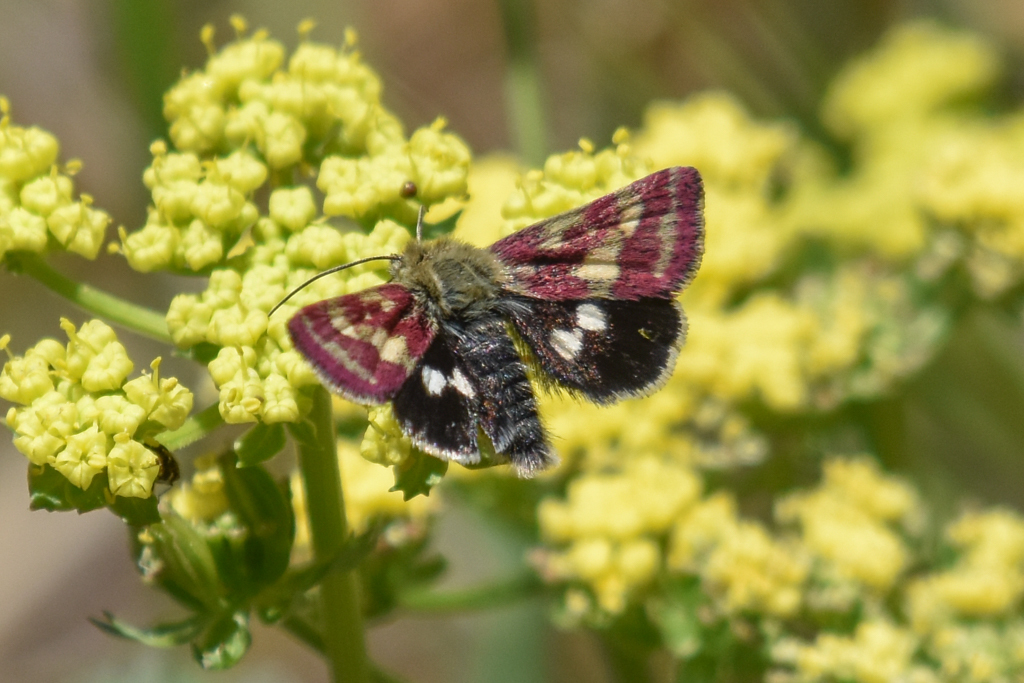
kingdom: Animalia
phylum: Arthropoda
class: Insecta
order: Lepidoptera
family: Noctuidae
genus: Heliothodes
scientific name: Heliothodes diminutiva
